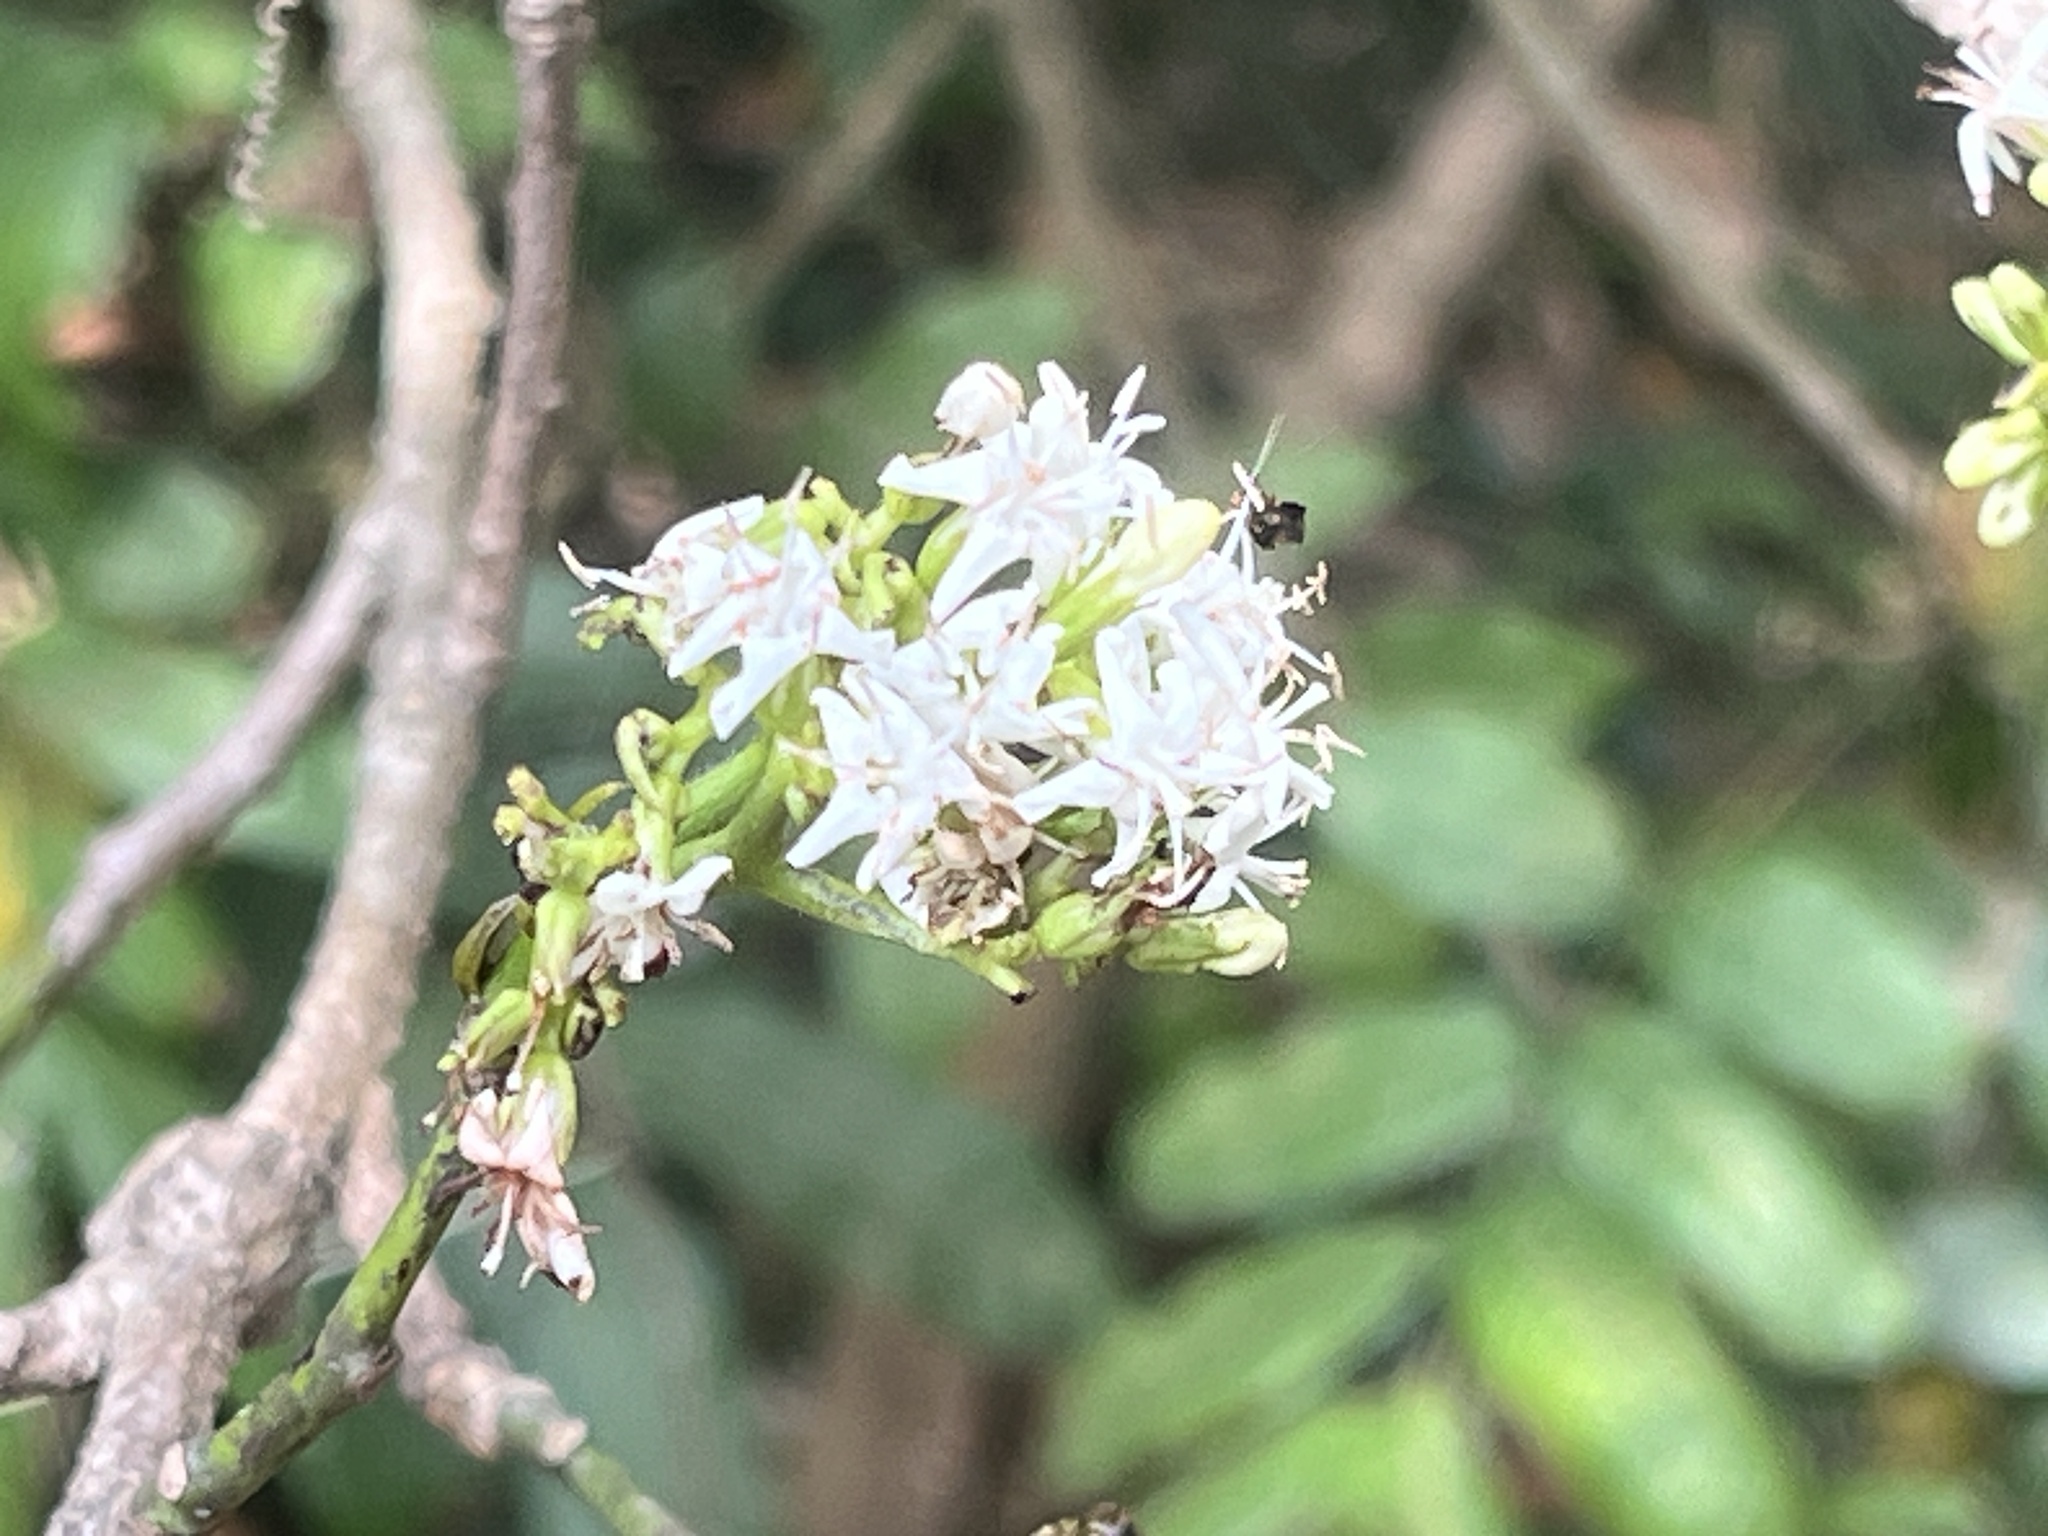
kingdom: Plantae
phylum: Tracheophyta
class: Magnoliopsida
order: Boraginales
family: Ehretiaceae
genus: Ehretia
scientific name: Ehretia resinosa
